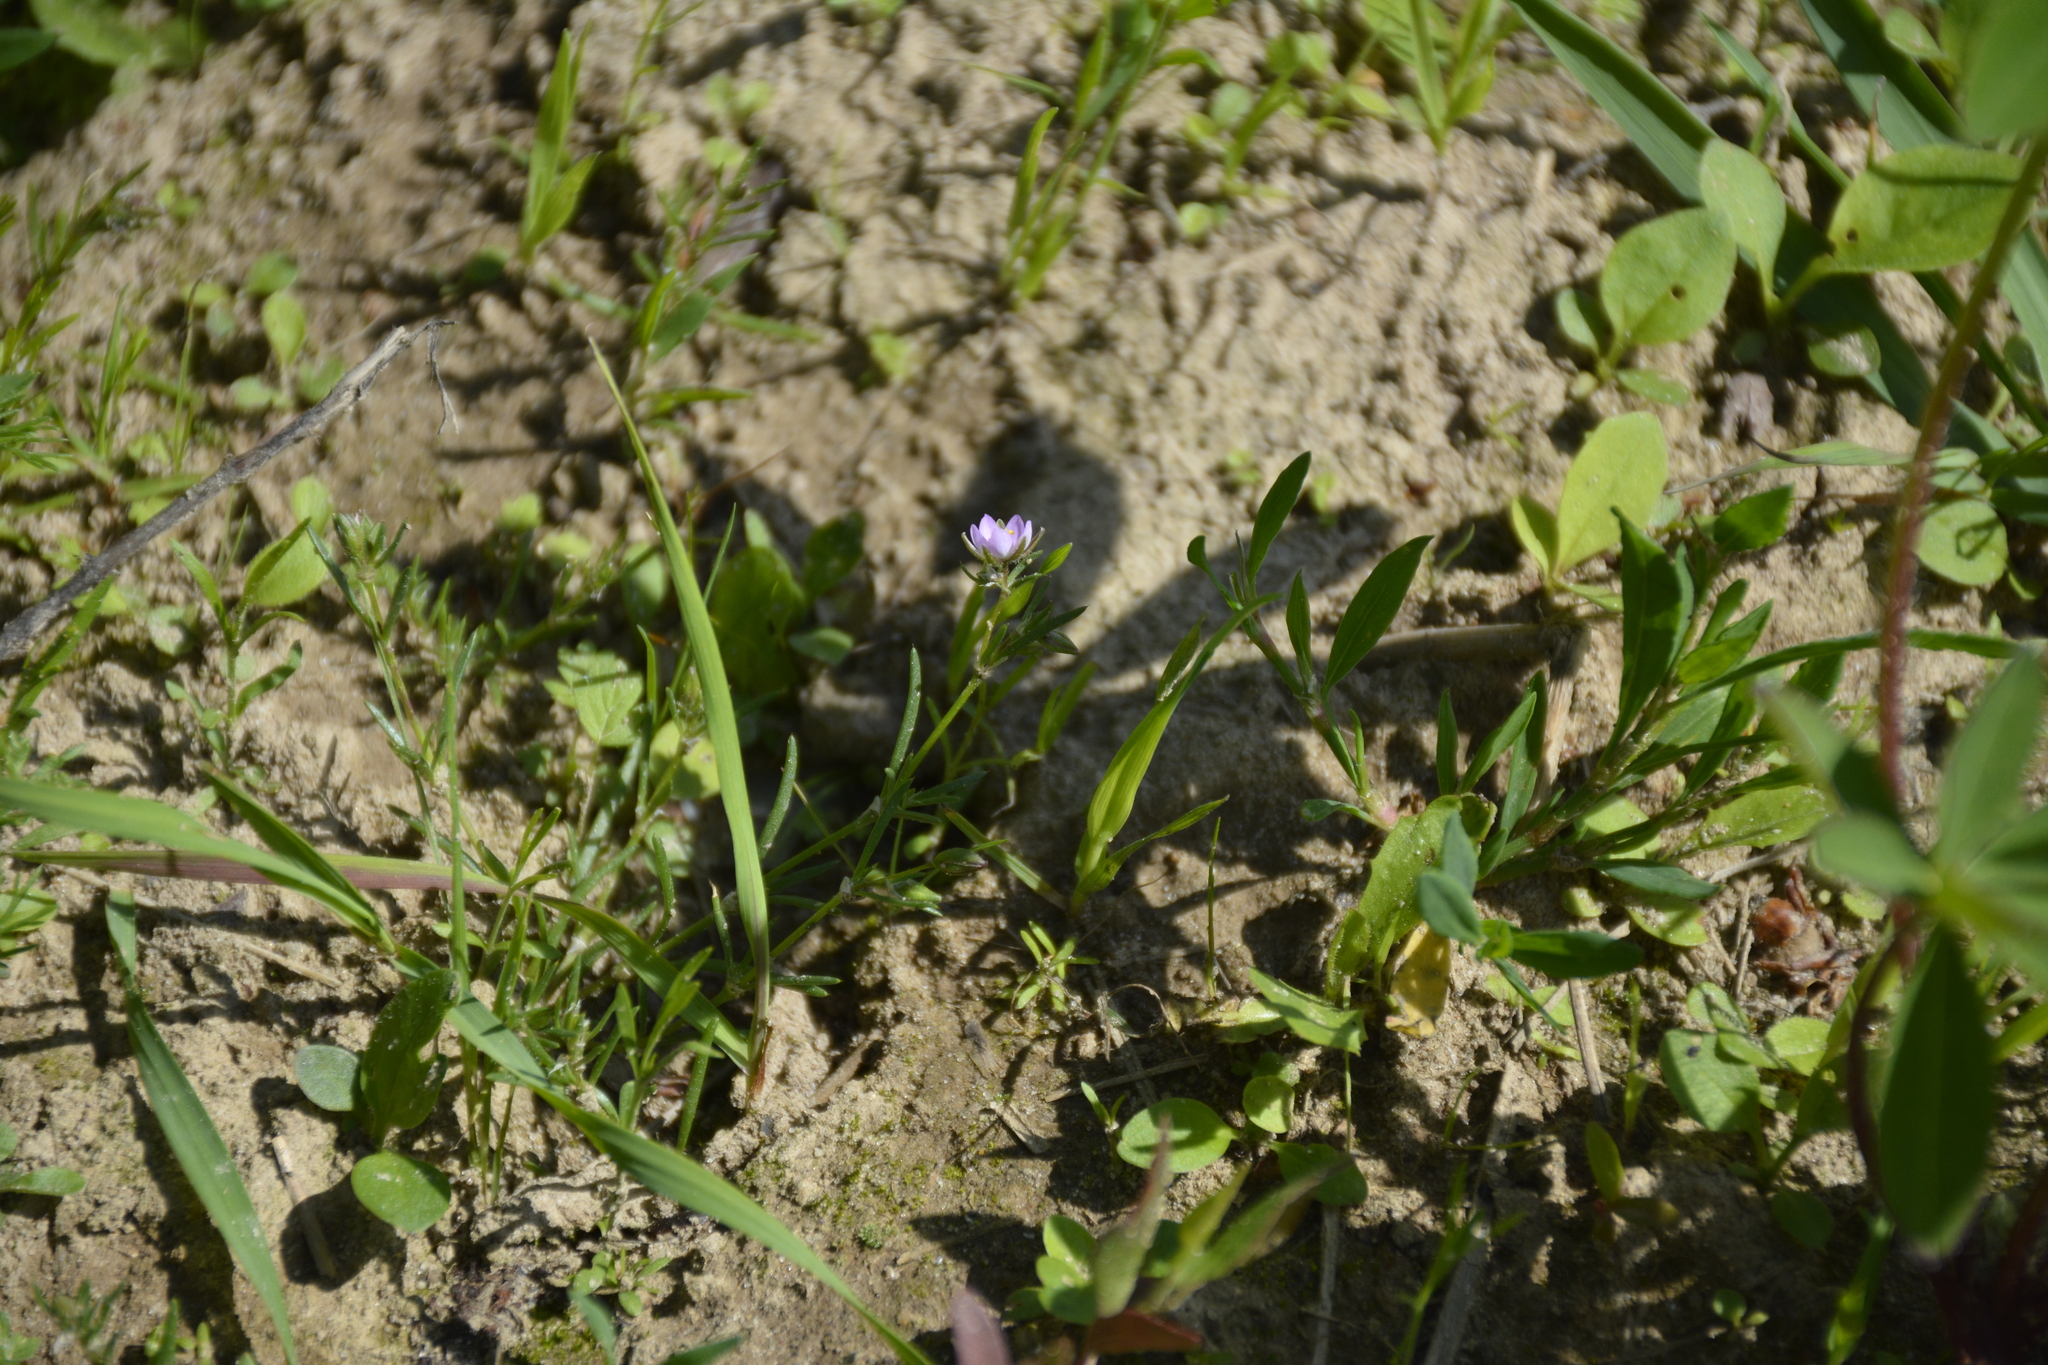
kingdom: Plantae
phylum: Tracheophyta
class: Magnoliopsida
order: Caryophyllales
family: Caryophyllaceae
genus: Spergularia
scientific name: Spergularia rubra
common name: Red sand-spurrey
